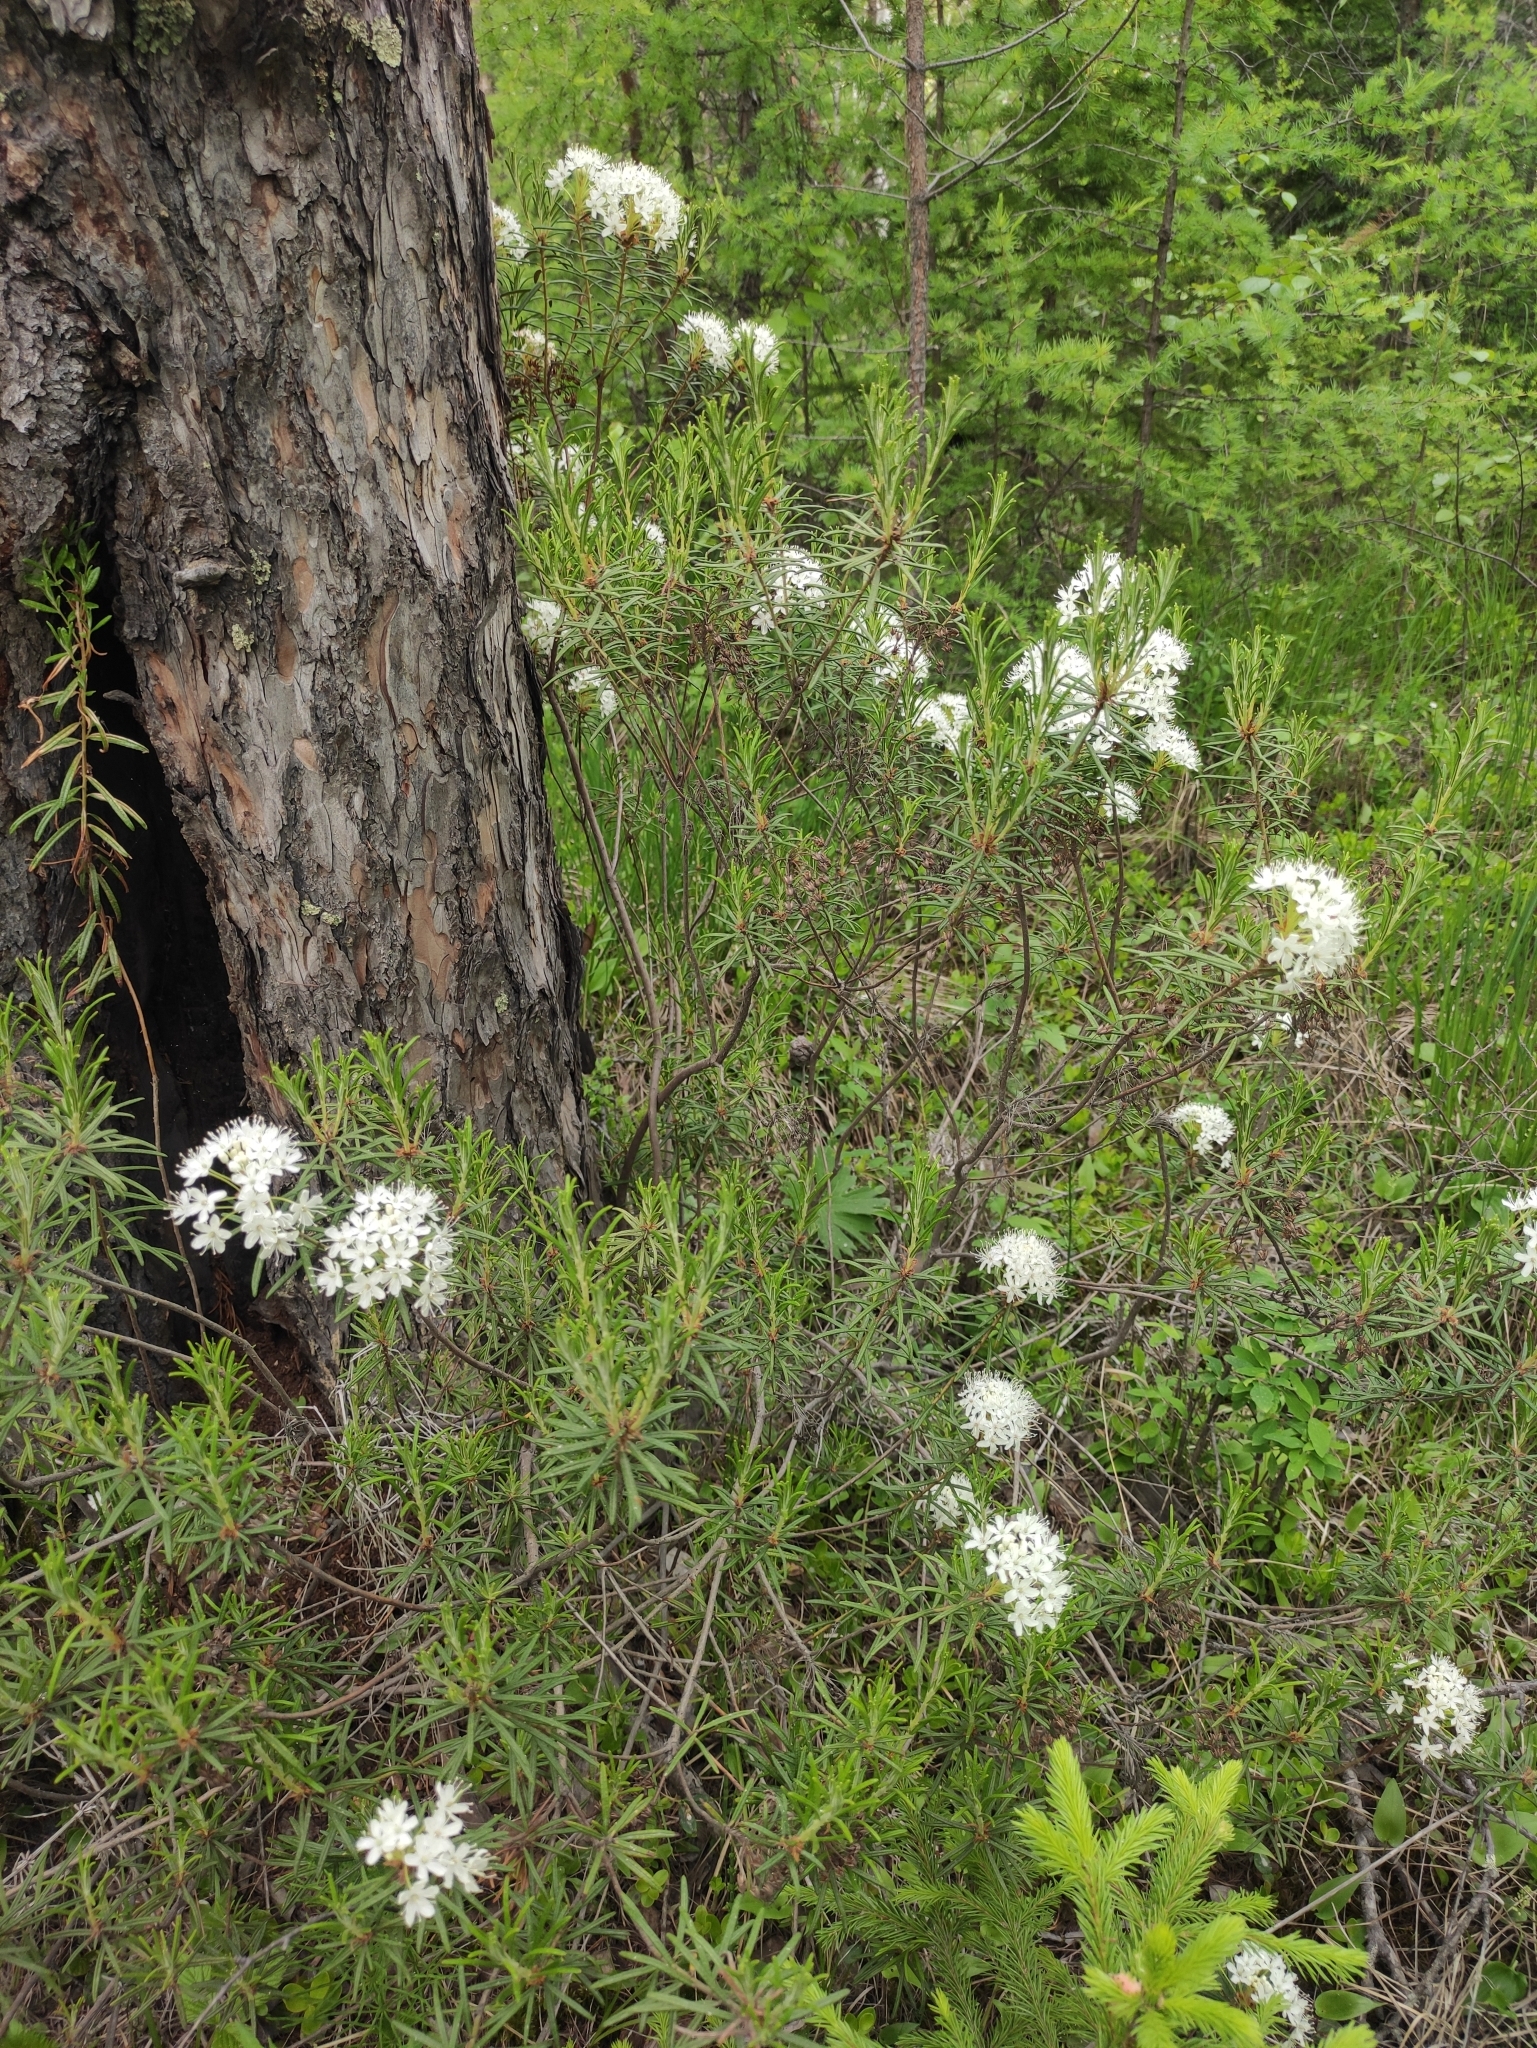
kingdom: Plantae
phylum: Tracheophyta
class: Magnoliopsida
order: Ericales
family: Ericaceae
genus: Rhododendron
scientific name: Rhododendron tomentosum
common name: Marsh labrador tea
